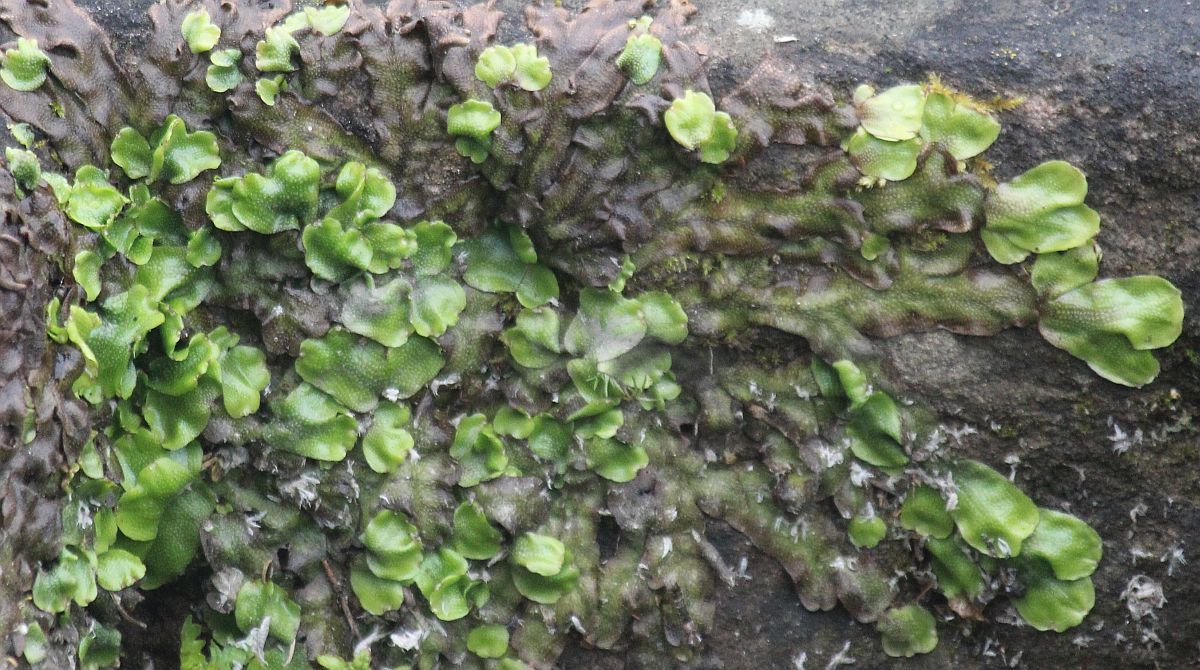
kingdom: Plantae
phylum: Marchantiophyta
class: Marchantiopsida
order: Marchantiales
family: Conocephalaceae
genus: Conocephalum
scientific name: Conocephalum conicum
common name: Great scented liverwort
